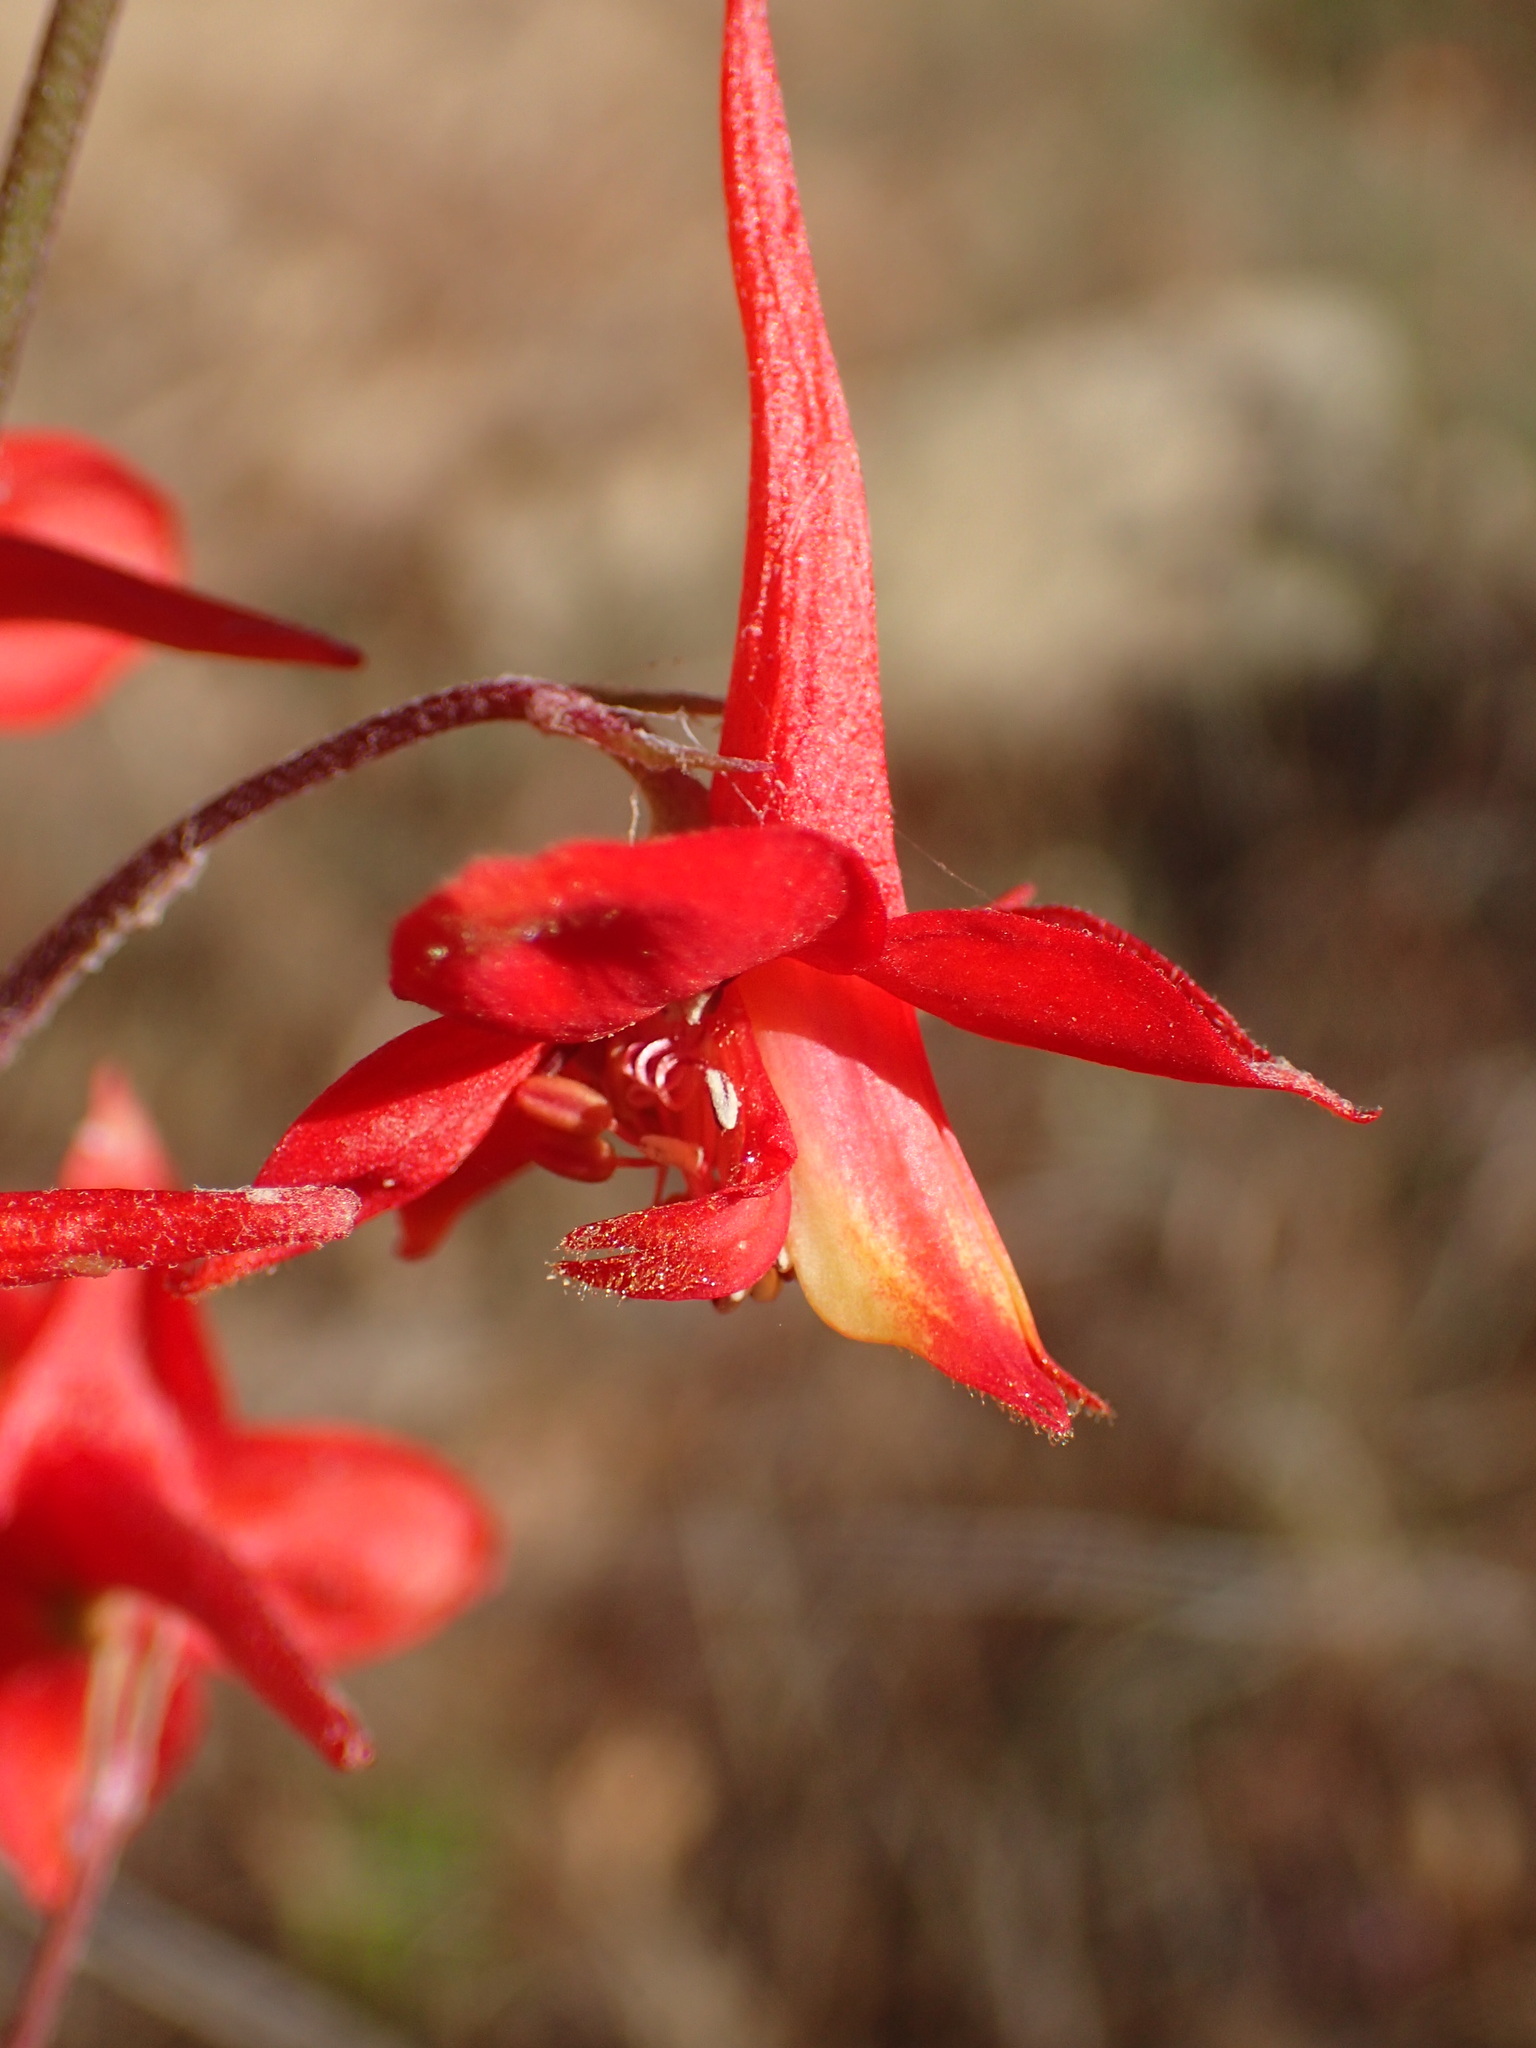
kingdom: Plantae
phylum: Tracheophyta
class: Magnoliopsida
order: Ranunculales
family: Ranunculaceae
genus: Delphinium
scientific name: Delphinium cardinale
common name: Scarlet larkspur
